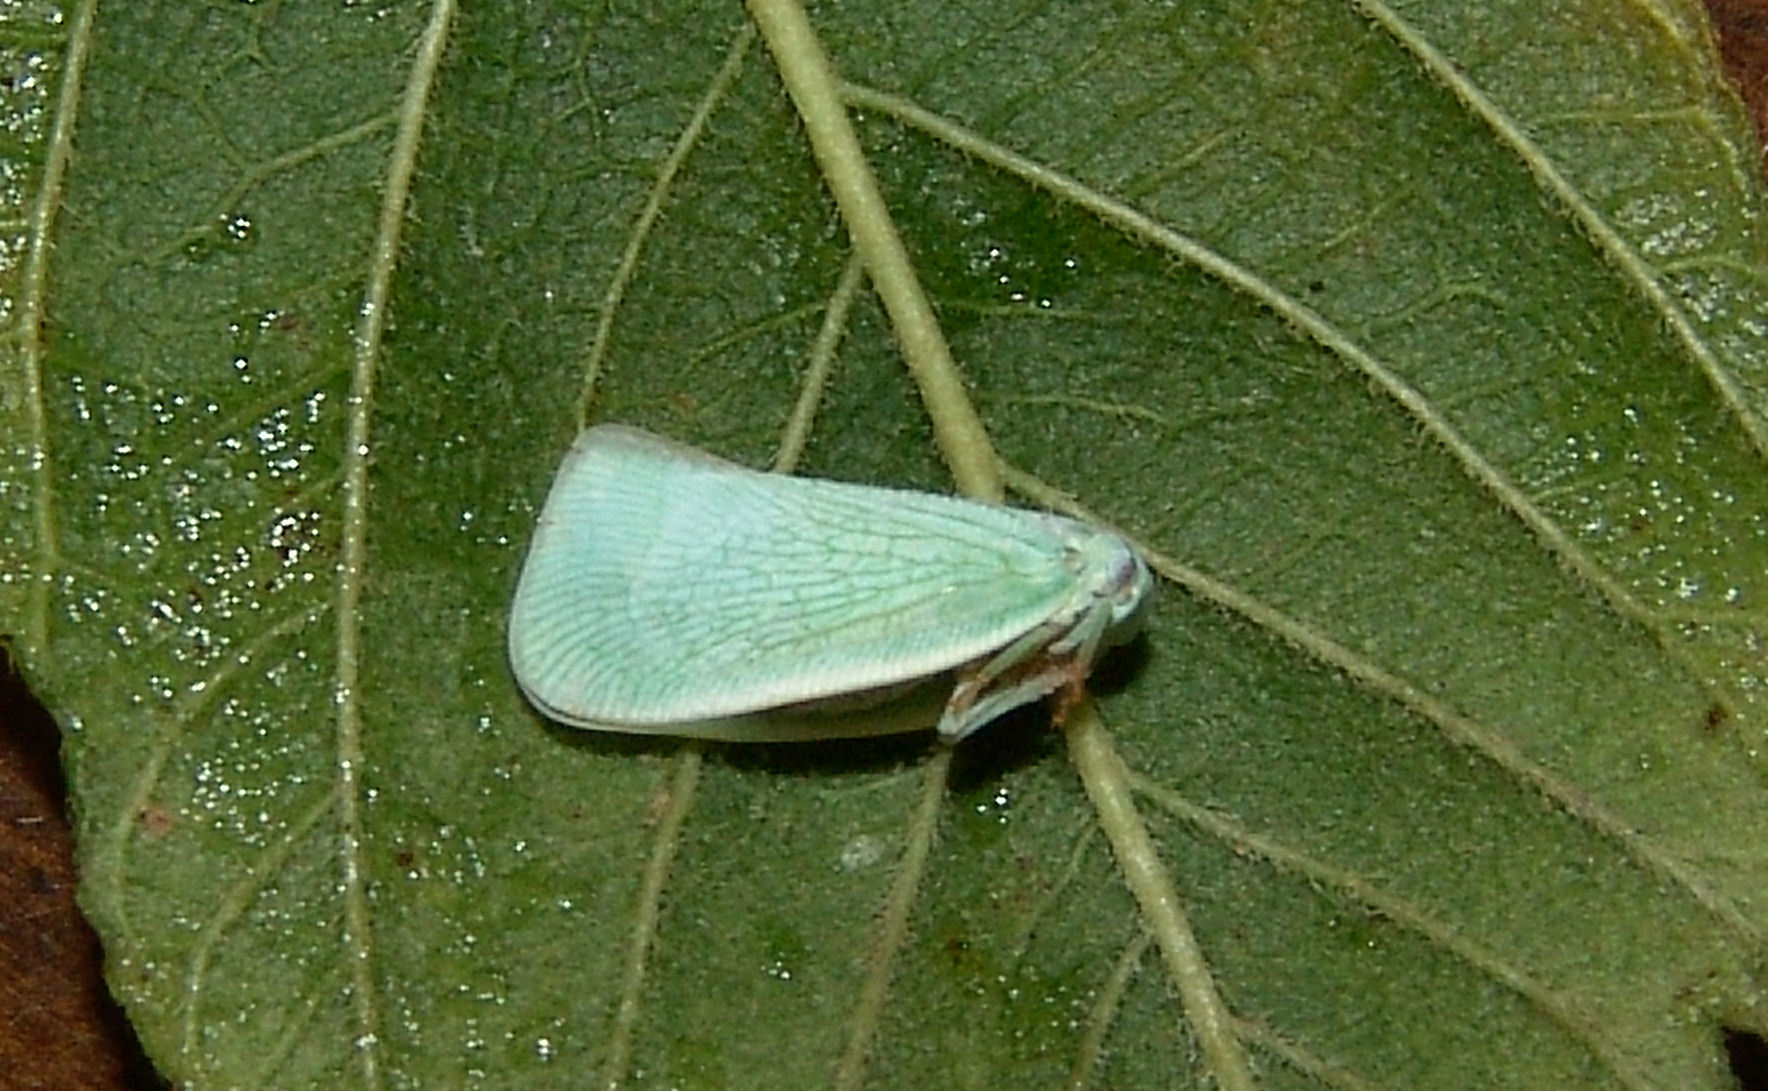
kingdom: Animalia
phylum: Arthropoda
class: Insecta
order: Hemiptera
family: Flatidae
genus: Flatormenis
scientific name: Flatormenis proxima
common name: Northern flatid planthopper
